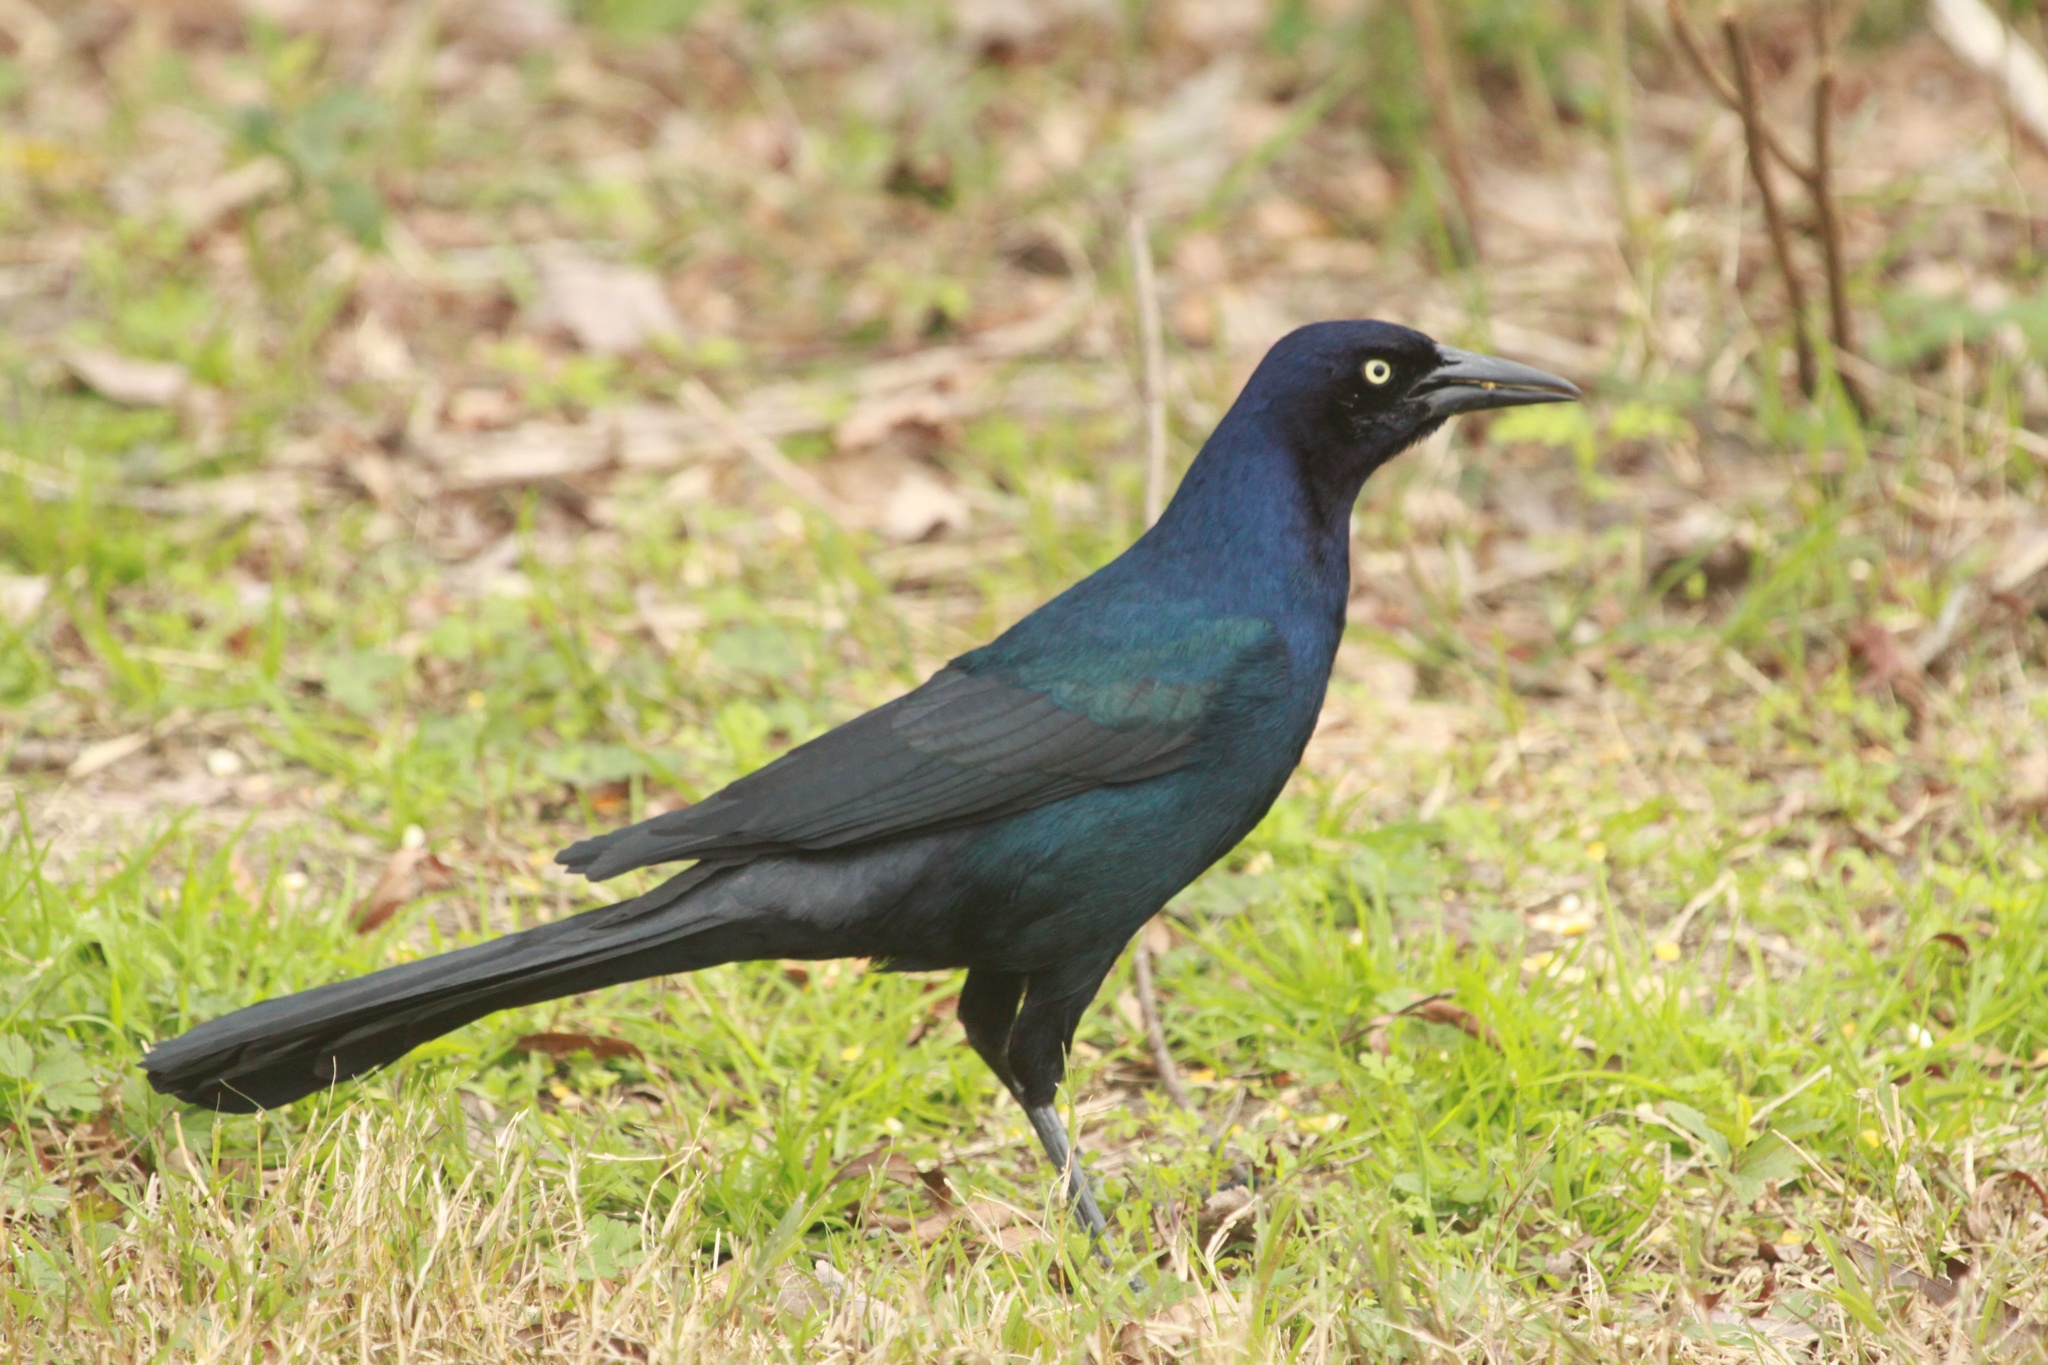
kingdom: Animalia
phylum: Chordata
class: Aves
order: Passeriformes
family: Icteridae
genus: Quiscalus
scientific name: Quiscalus major
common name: Boat-tailed grackle
